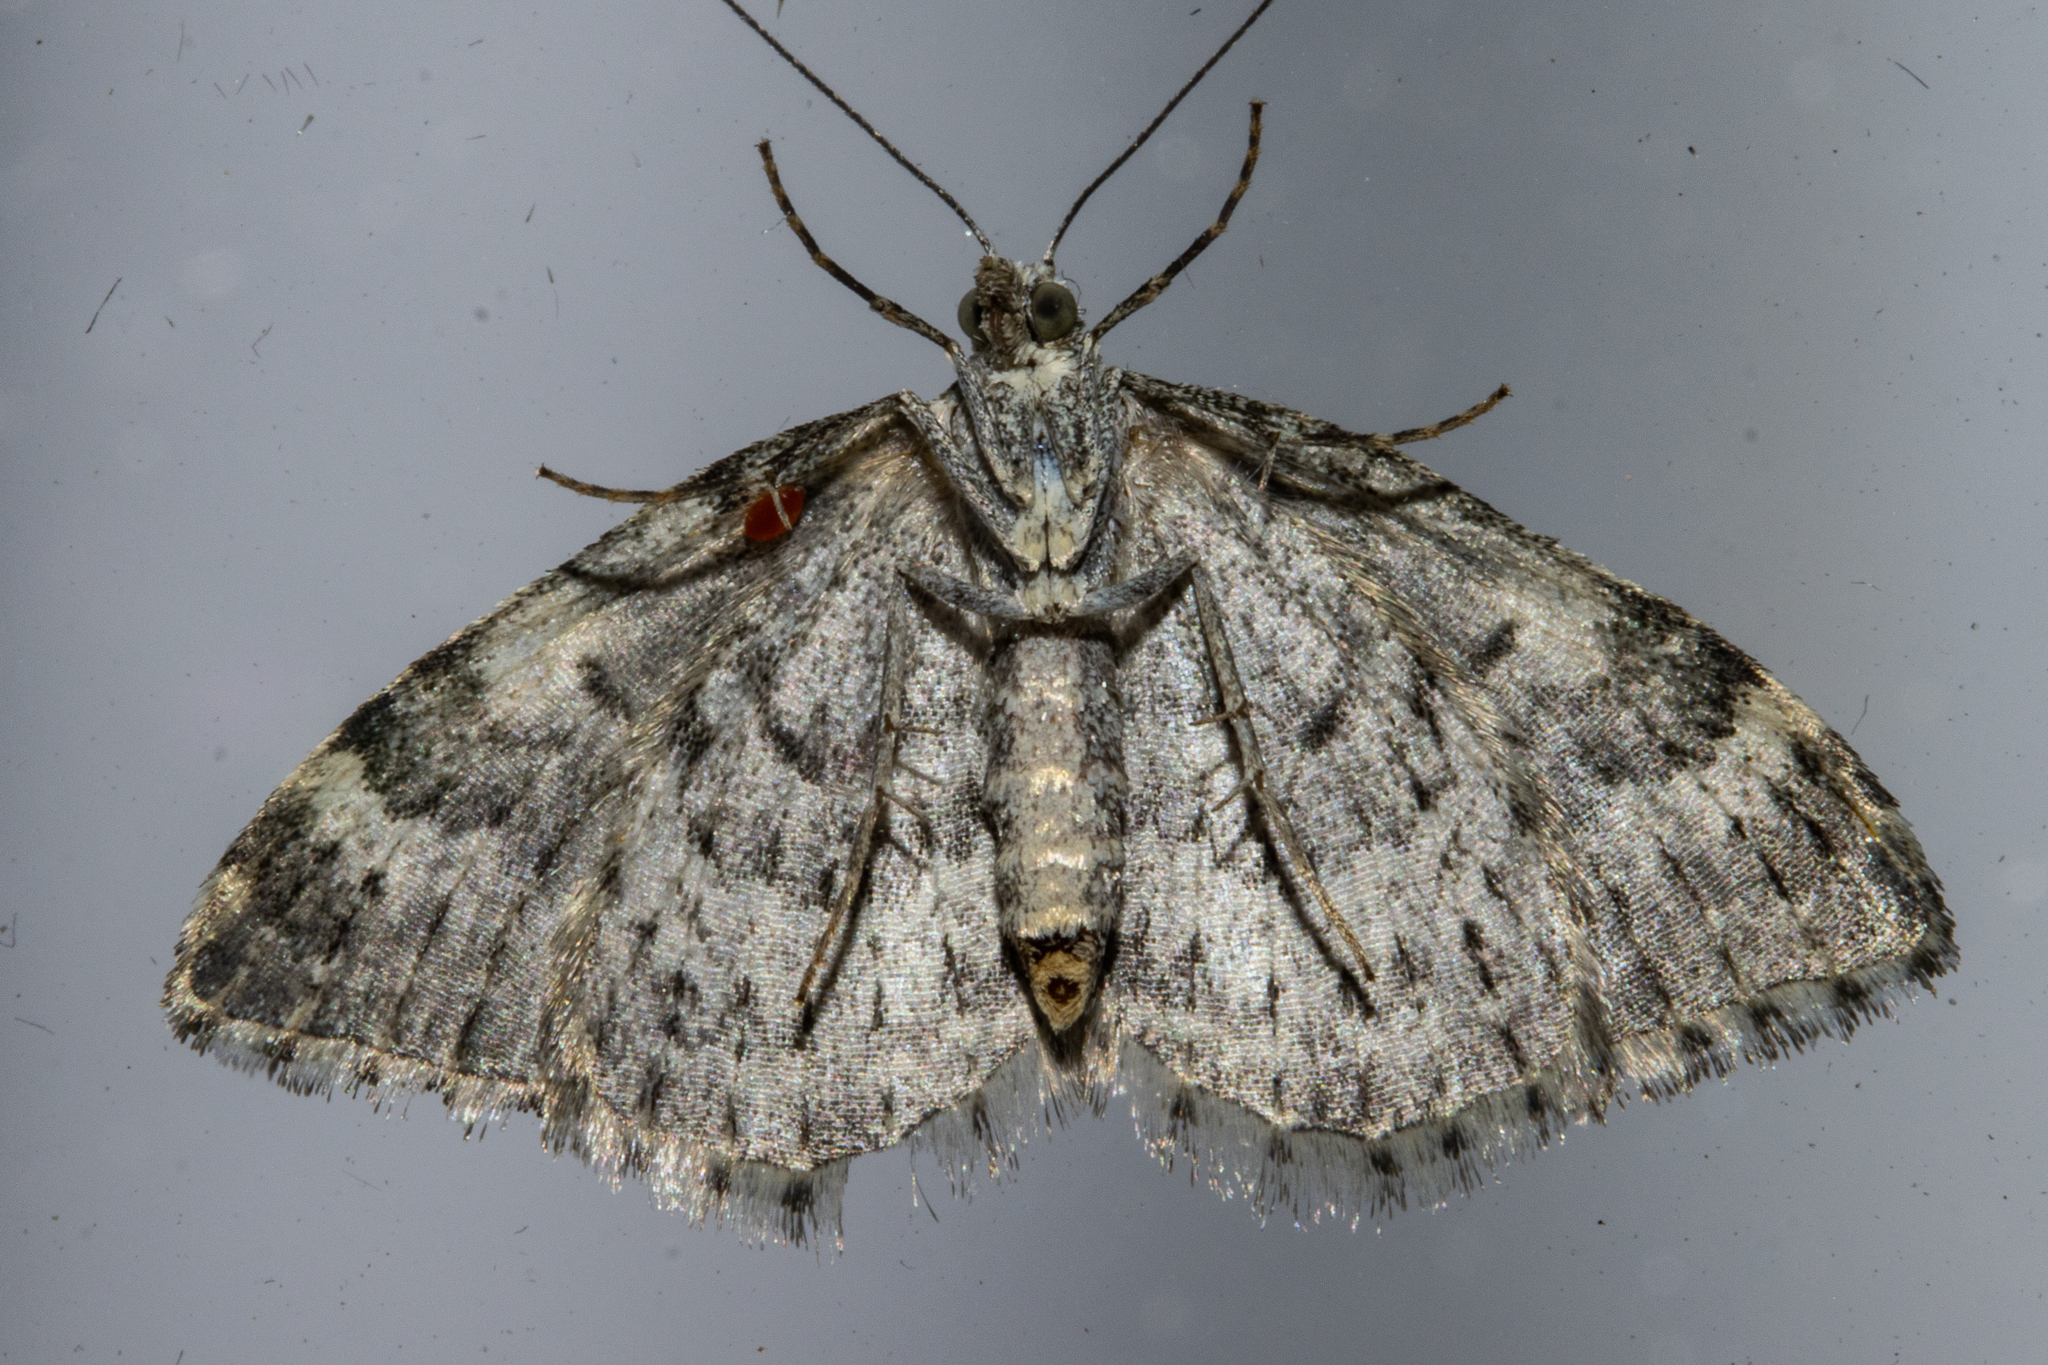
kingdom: Animalia
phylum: Arthropoda
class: Insecta
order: Lepidoptera
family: Geometridae
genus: Helastia
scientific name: Helastia plumbea
